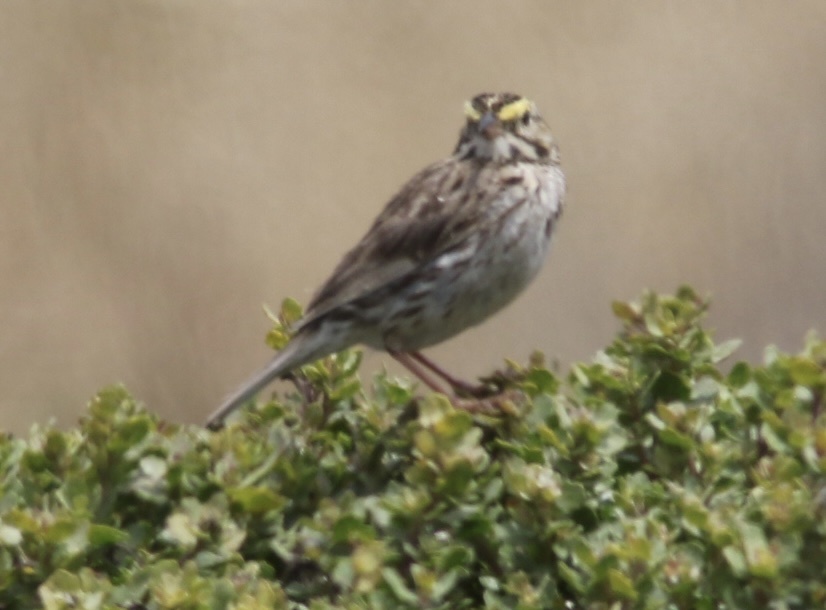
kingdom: Animalia
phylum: Chordata
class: Aves
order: Passeriformes
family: Passerellidae
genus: Passerculus
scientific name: Passerculus sandwichensis
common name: Savannah sparrow
